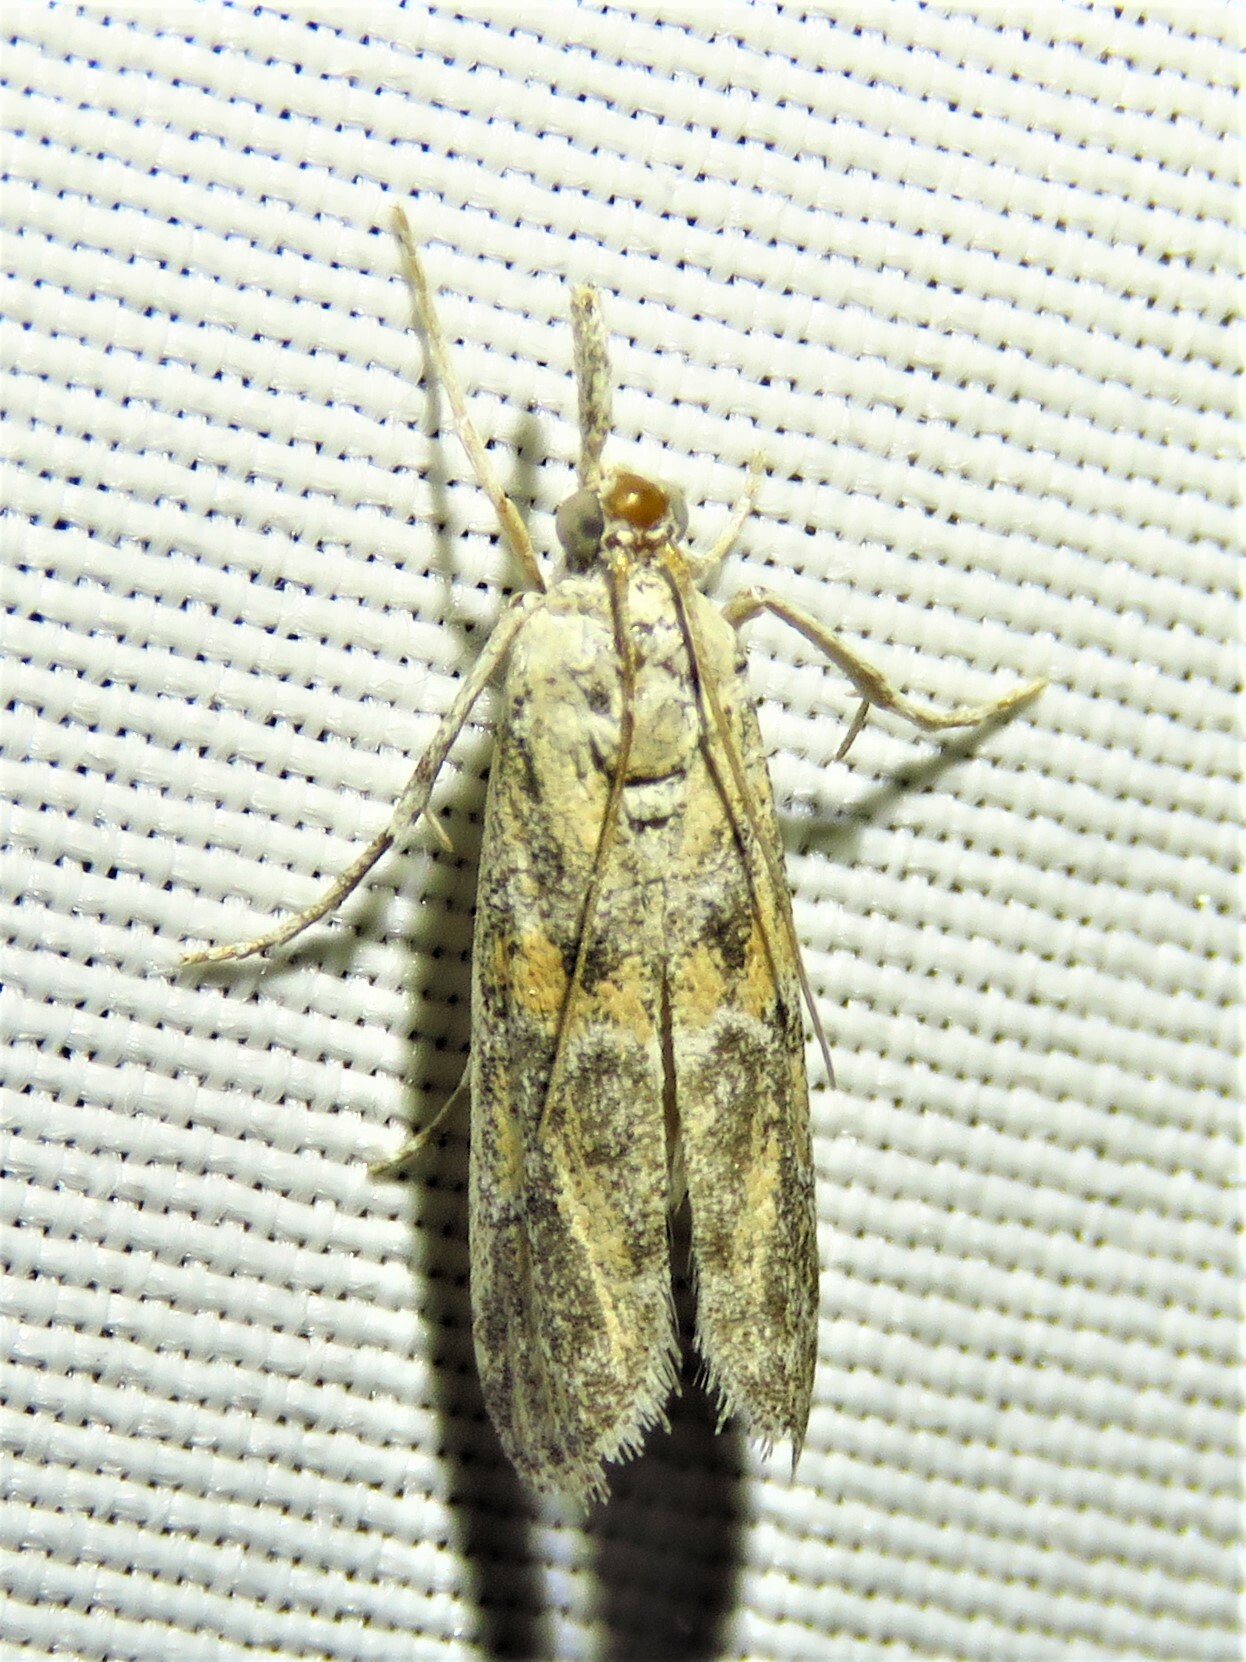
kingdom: Animalia
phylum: Arthropoda
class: Insecta
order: Lepidoptera
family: Pyralidae
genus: Maricopa
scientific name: Maricopa lativittella
